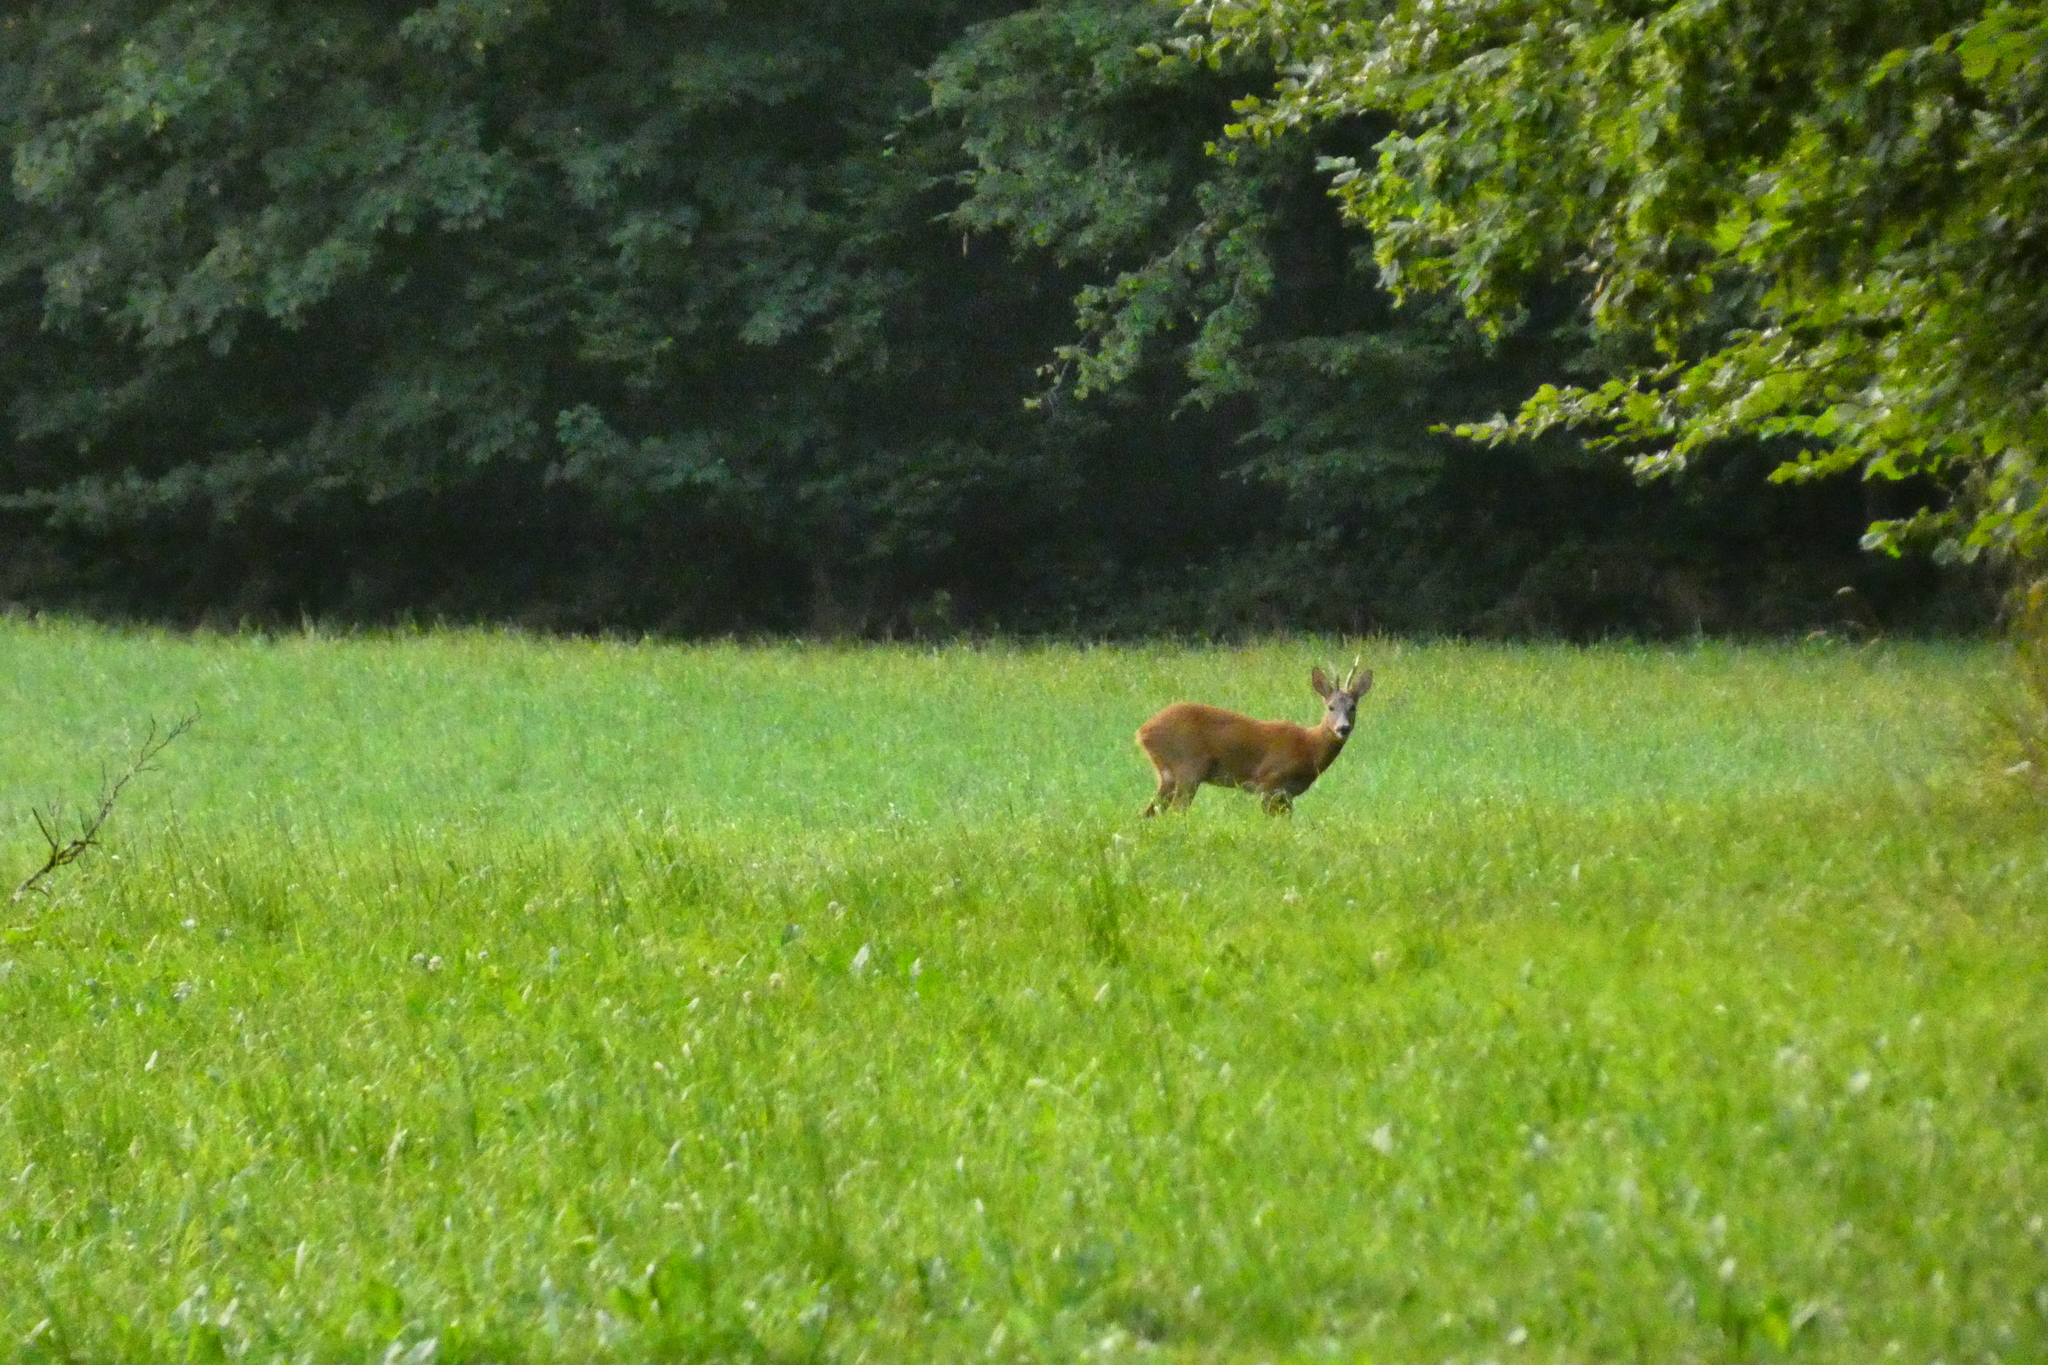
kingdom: Animalia
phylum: Chordata
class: Mammalia
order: Artiodactyla
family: Cervidae
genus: Capreolus
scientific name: Capreolus capreolus
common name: Western roe deer
